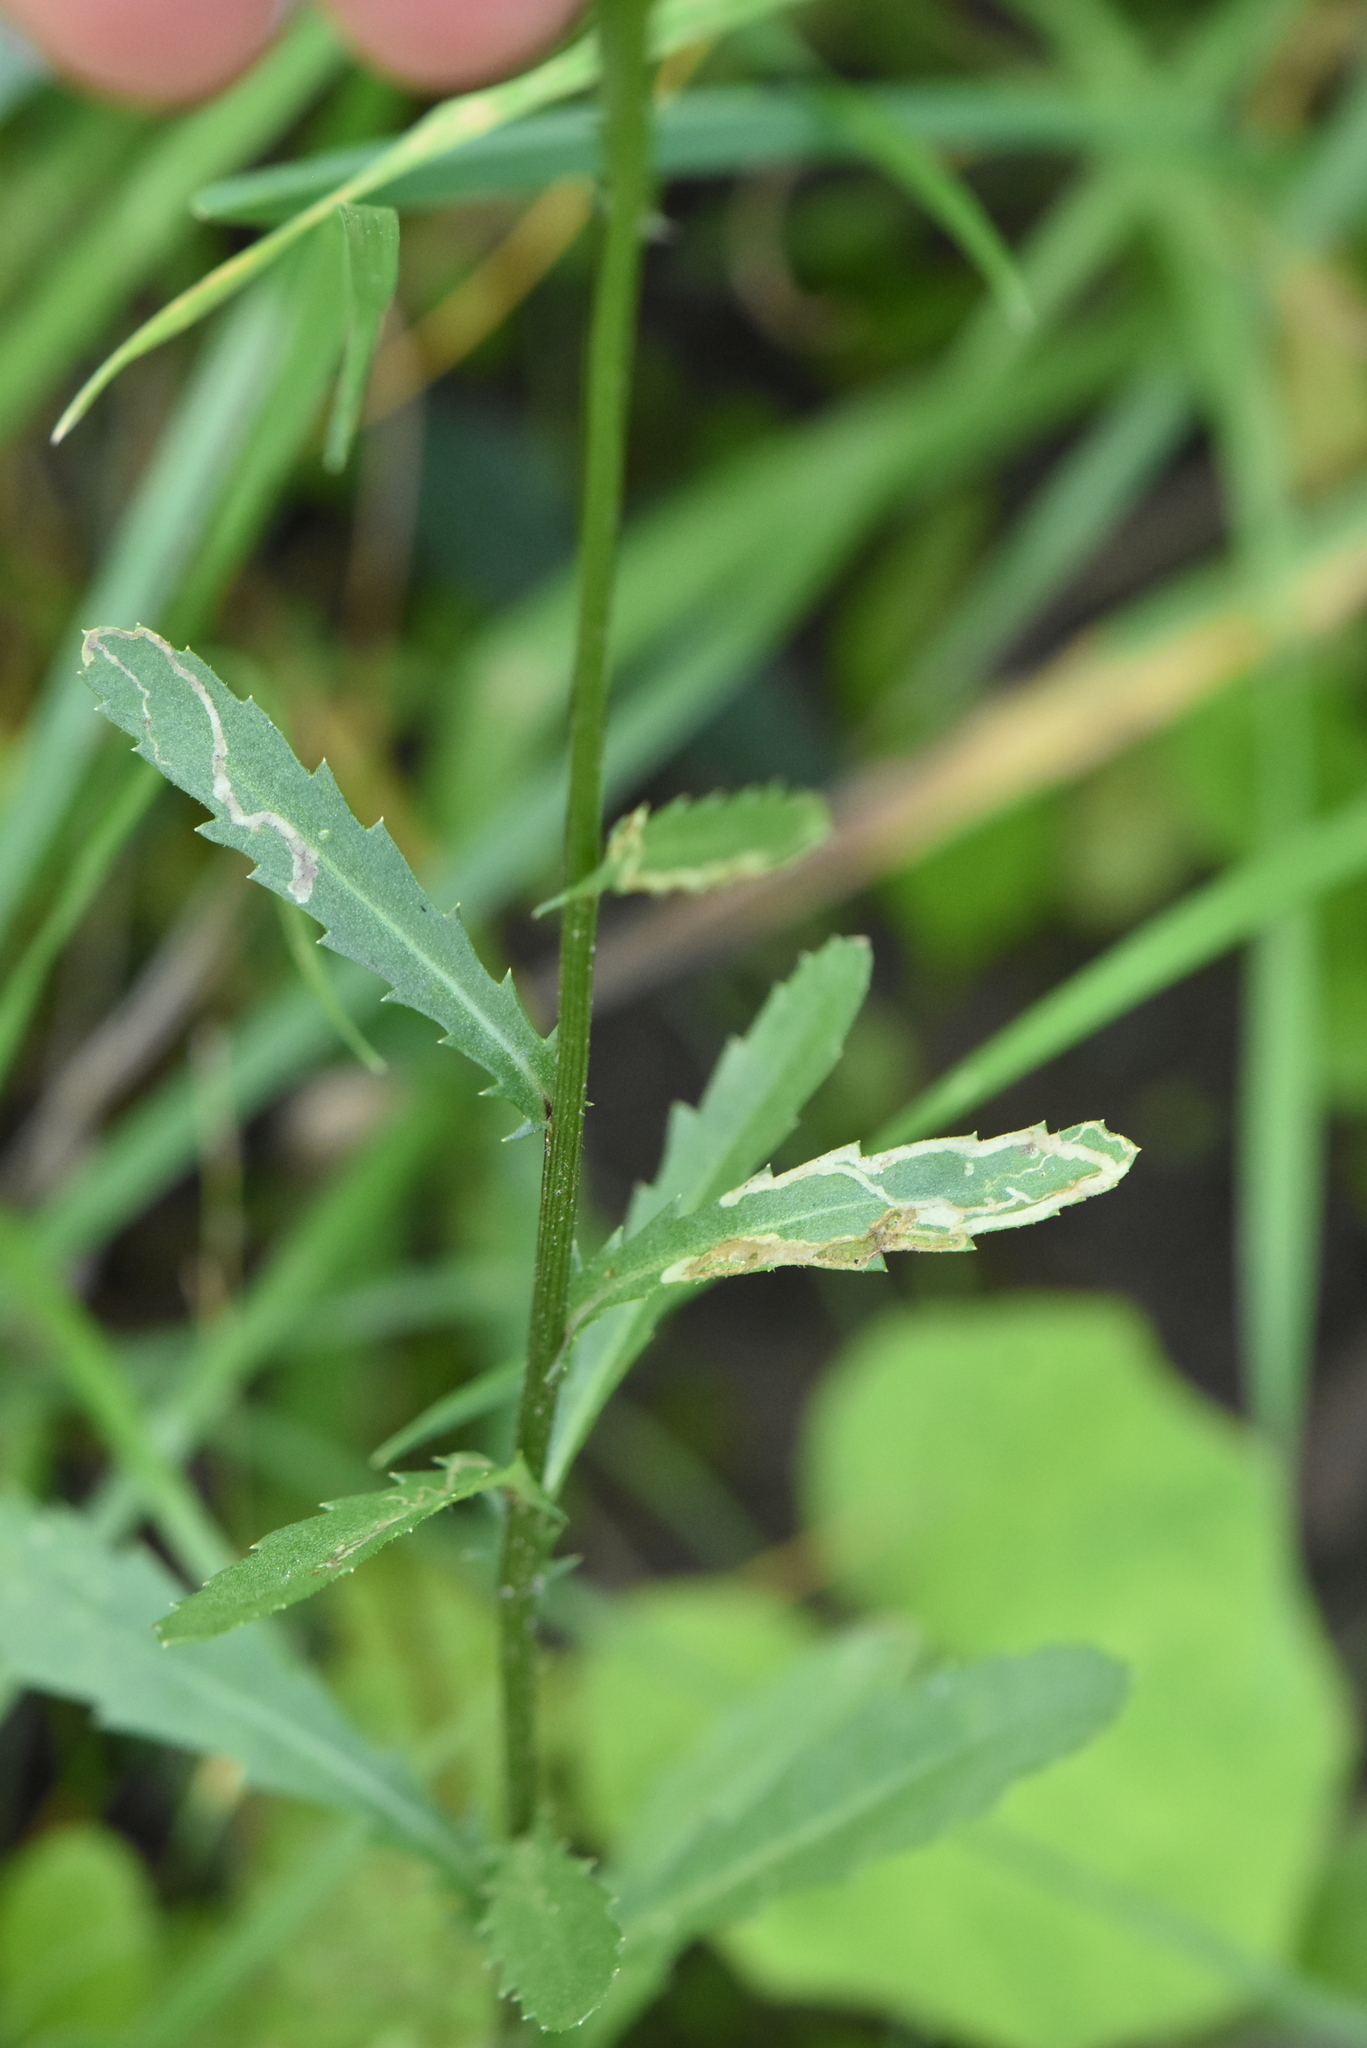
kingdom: Plantae
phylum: Tracheophyta
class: Magnoliopsida
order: Asterales
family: Asteraceae
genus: Leucanthemum
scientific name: Leucanthemum vulgare
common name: Oxeye daisy
